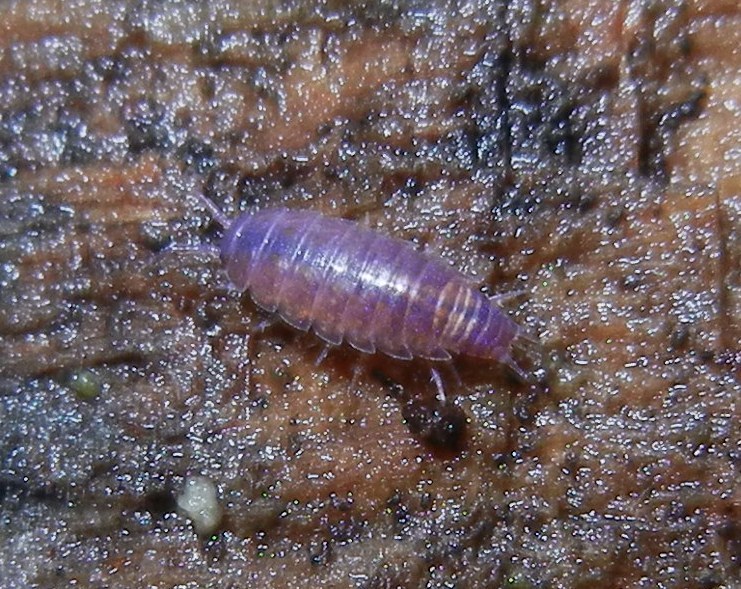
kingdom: Animalia
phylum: Arthropoda
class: Malacostraca
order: Isopoda
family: Trichoniscidae
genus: Trichoniscus
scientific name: Trichoniscus pusillus
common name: Common pygmy woodlouse
